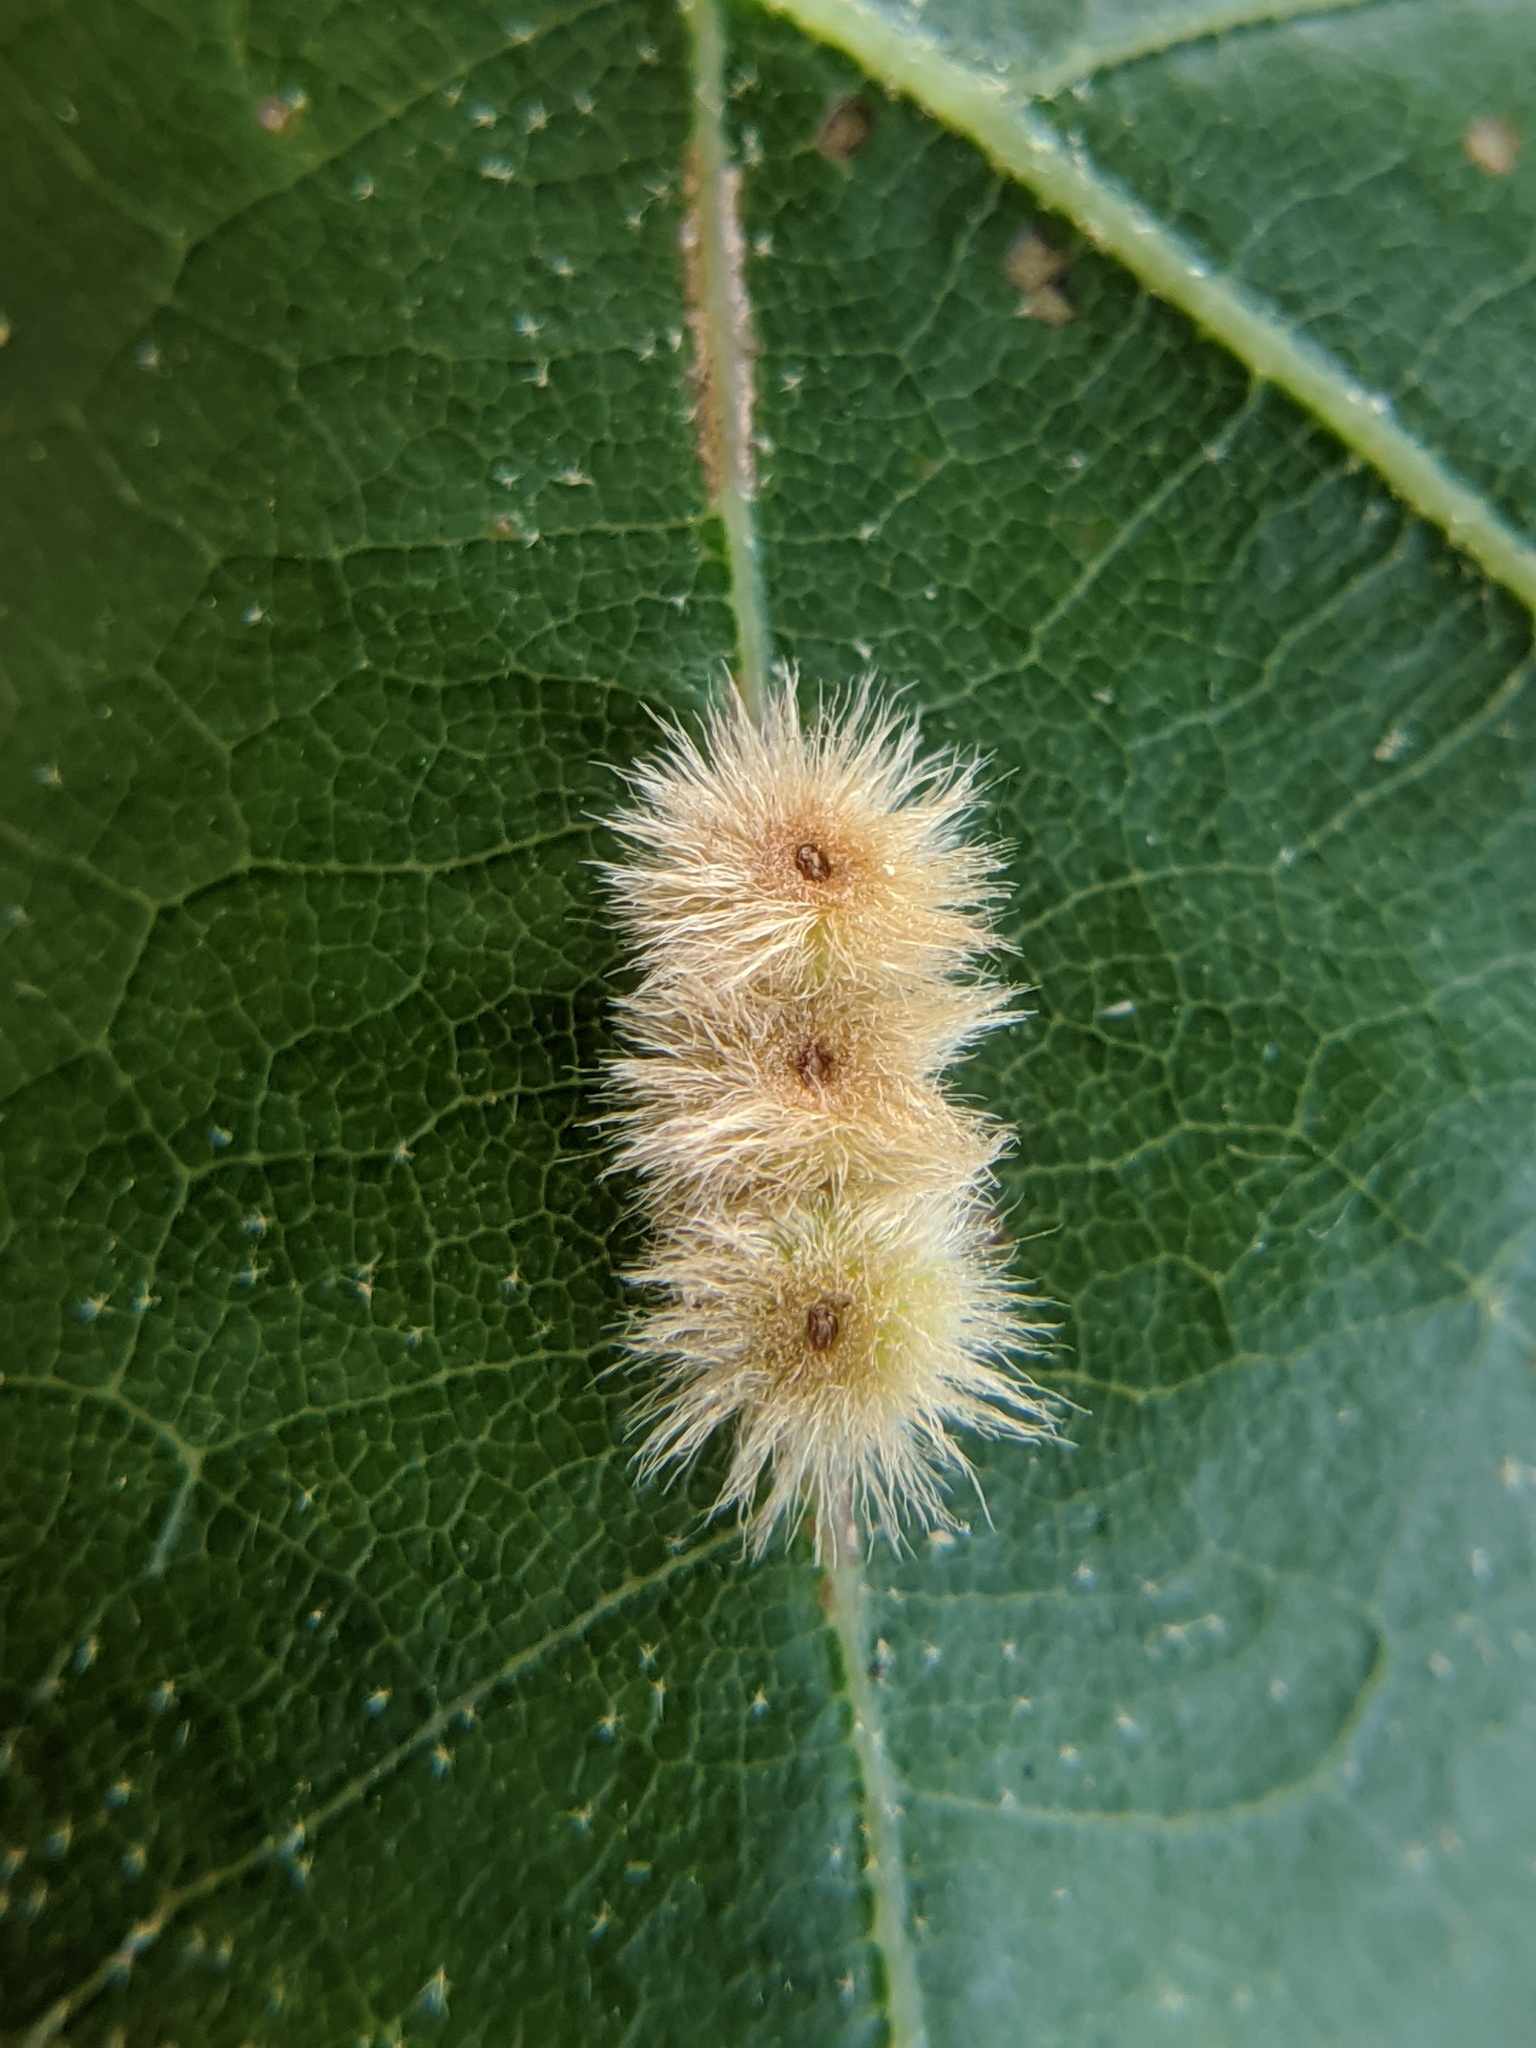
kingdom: Animalia
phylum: Arthropoda
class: Insecta
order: Hymenoptera
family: Cynipidae
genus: Callirhytis
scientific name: Callirhytis
